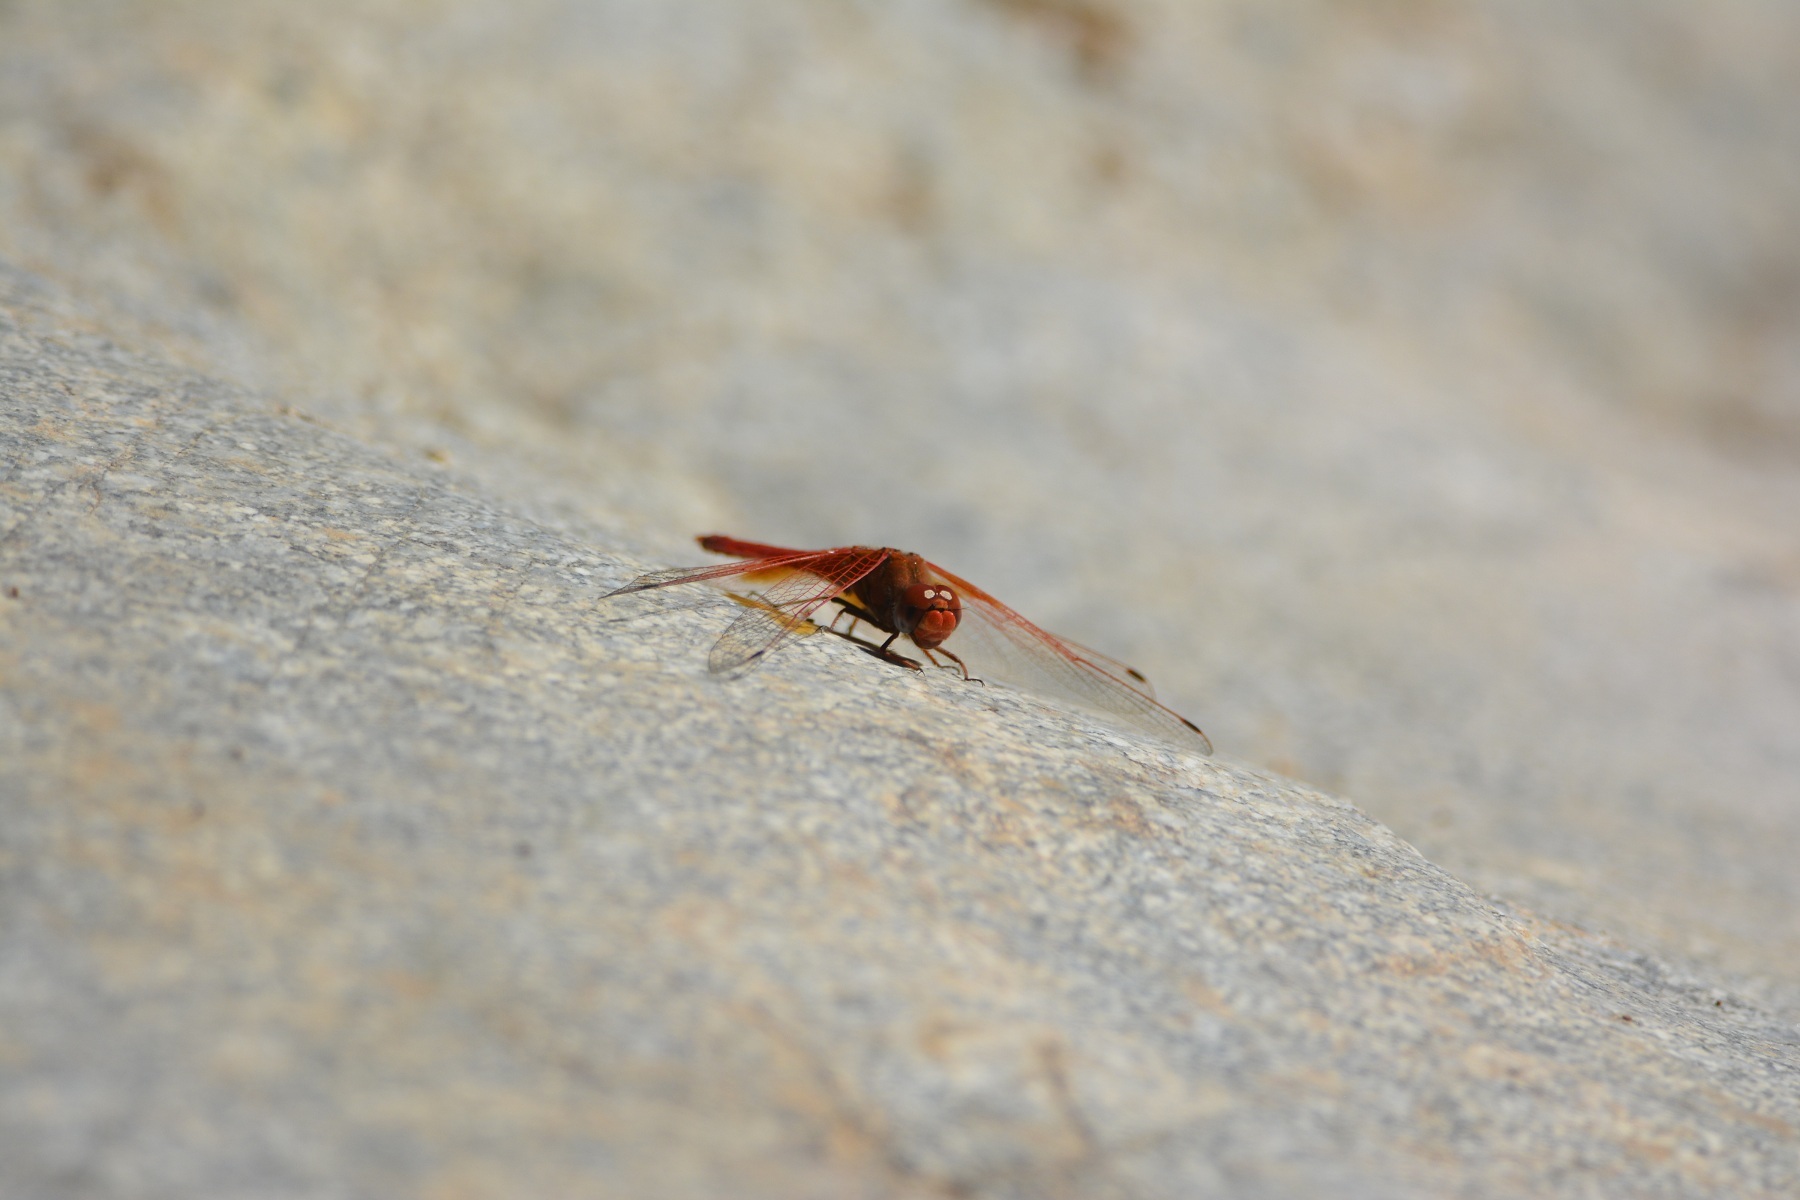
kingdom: Animalia
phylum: Arthropoda
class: Insecta
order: Odonata
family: Libellulidae
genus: Trithemis
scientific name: Trithemis arteriosa
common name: Red-veined dropwing
